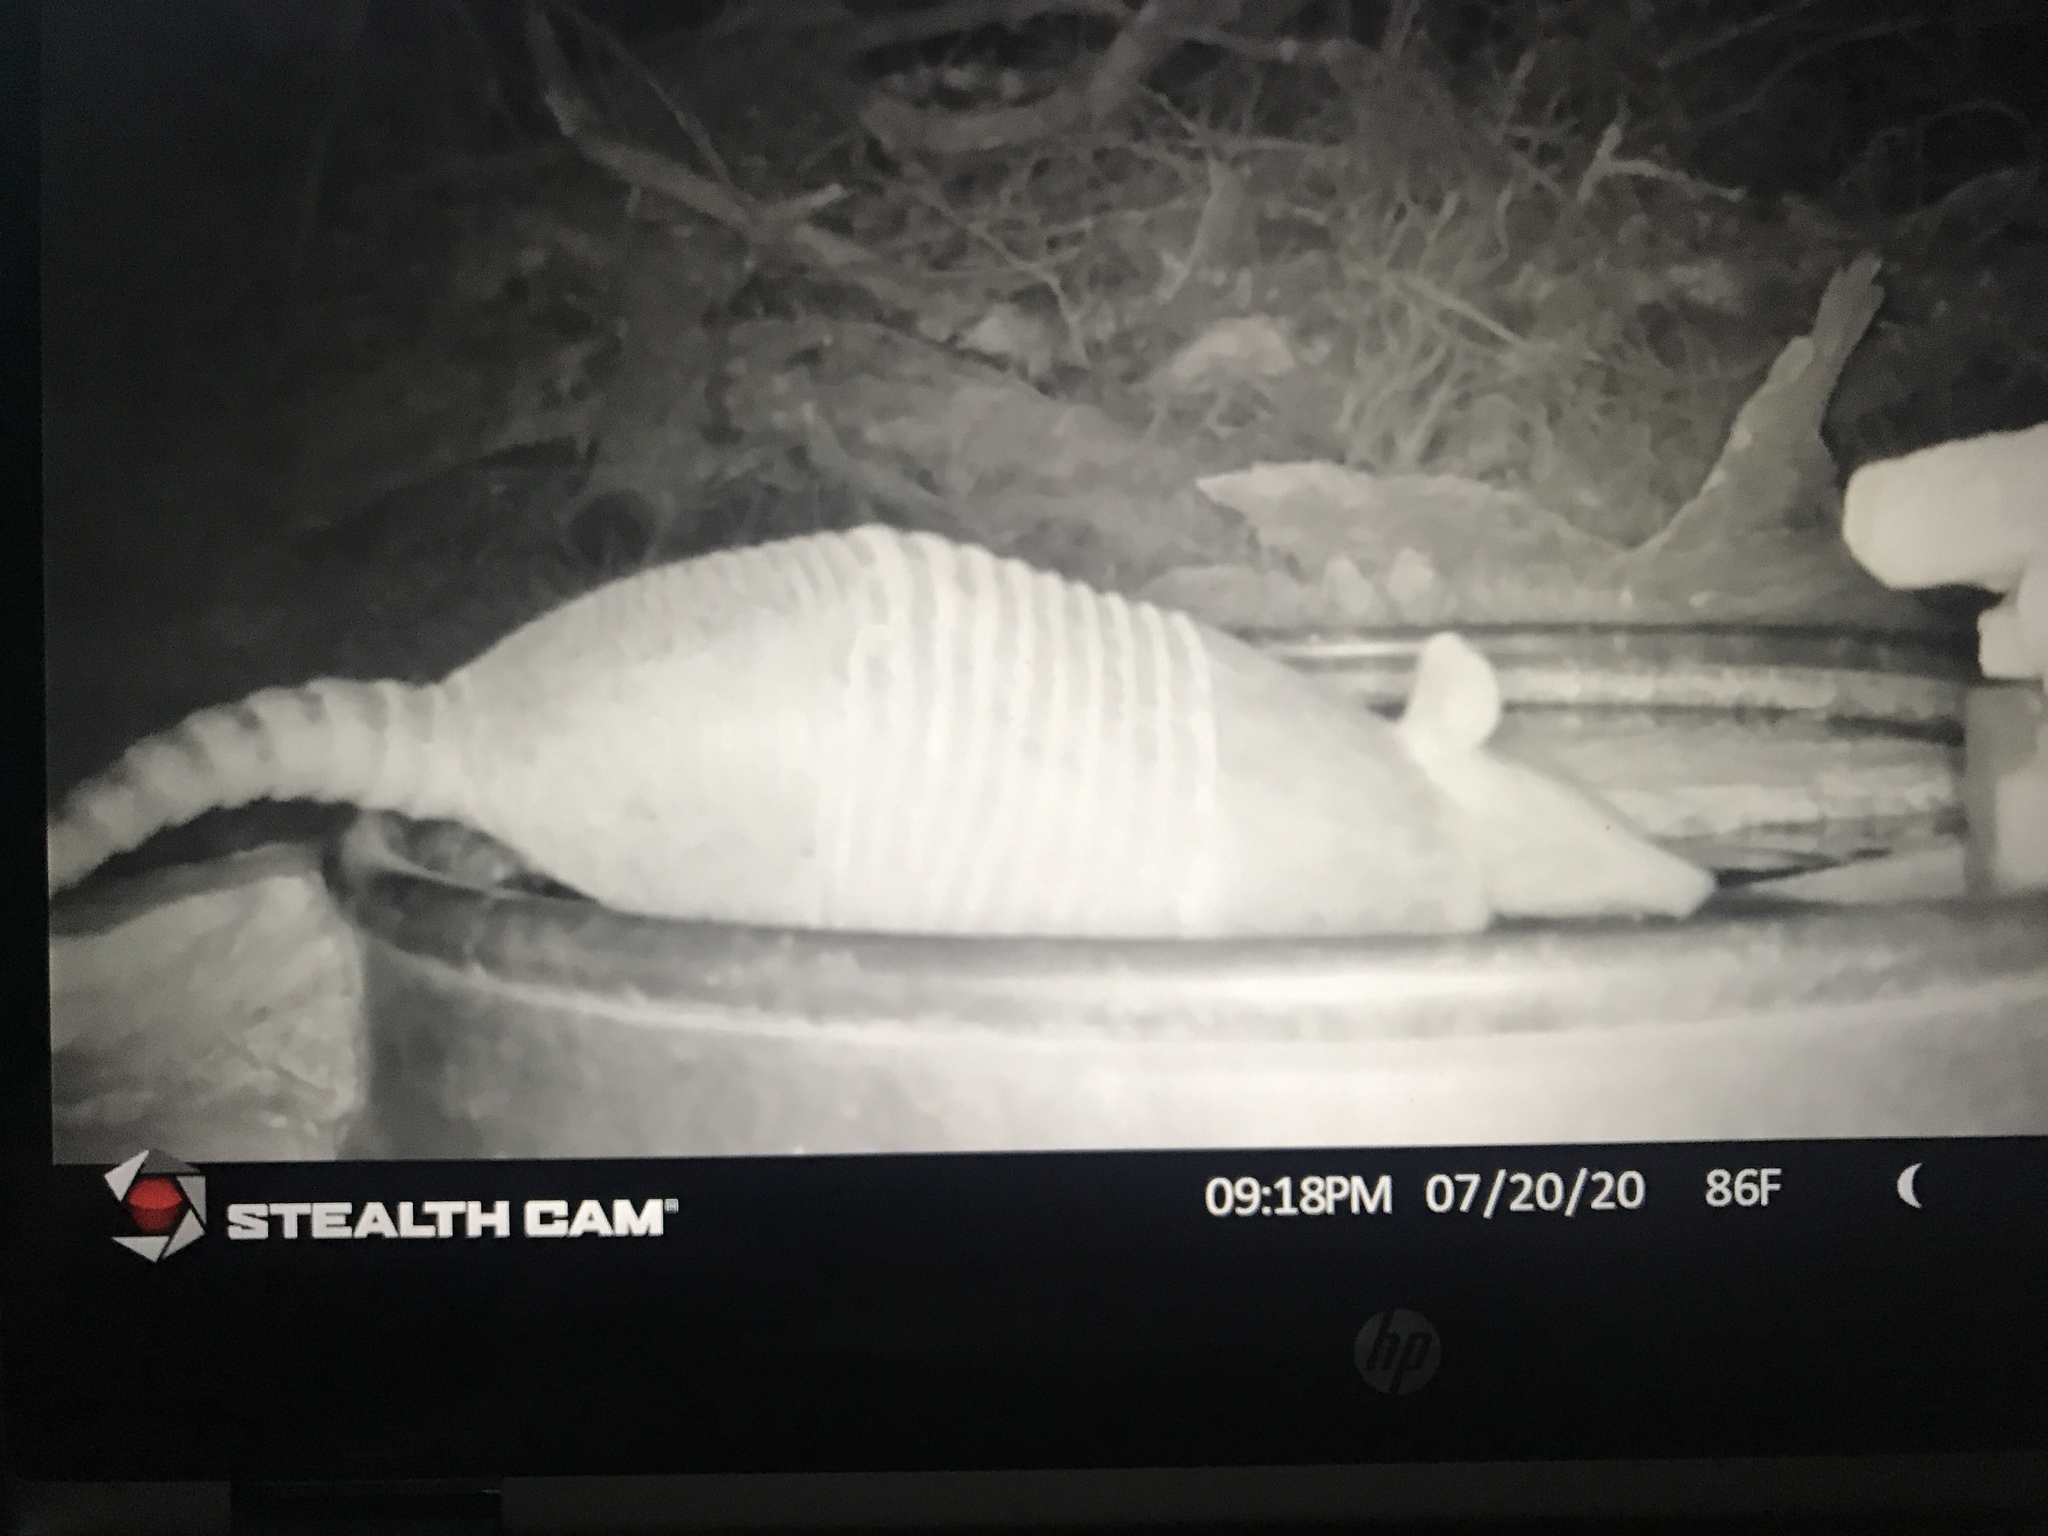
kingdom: Animalia
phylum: Chordata
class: Mammalia
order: Cingulata
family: Dasypodidae
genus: Dasypus
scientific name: Dasypus novemcinctus
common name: Nine-banded armadillo
